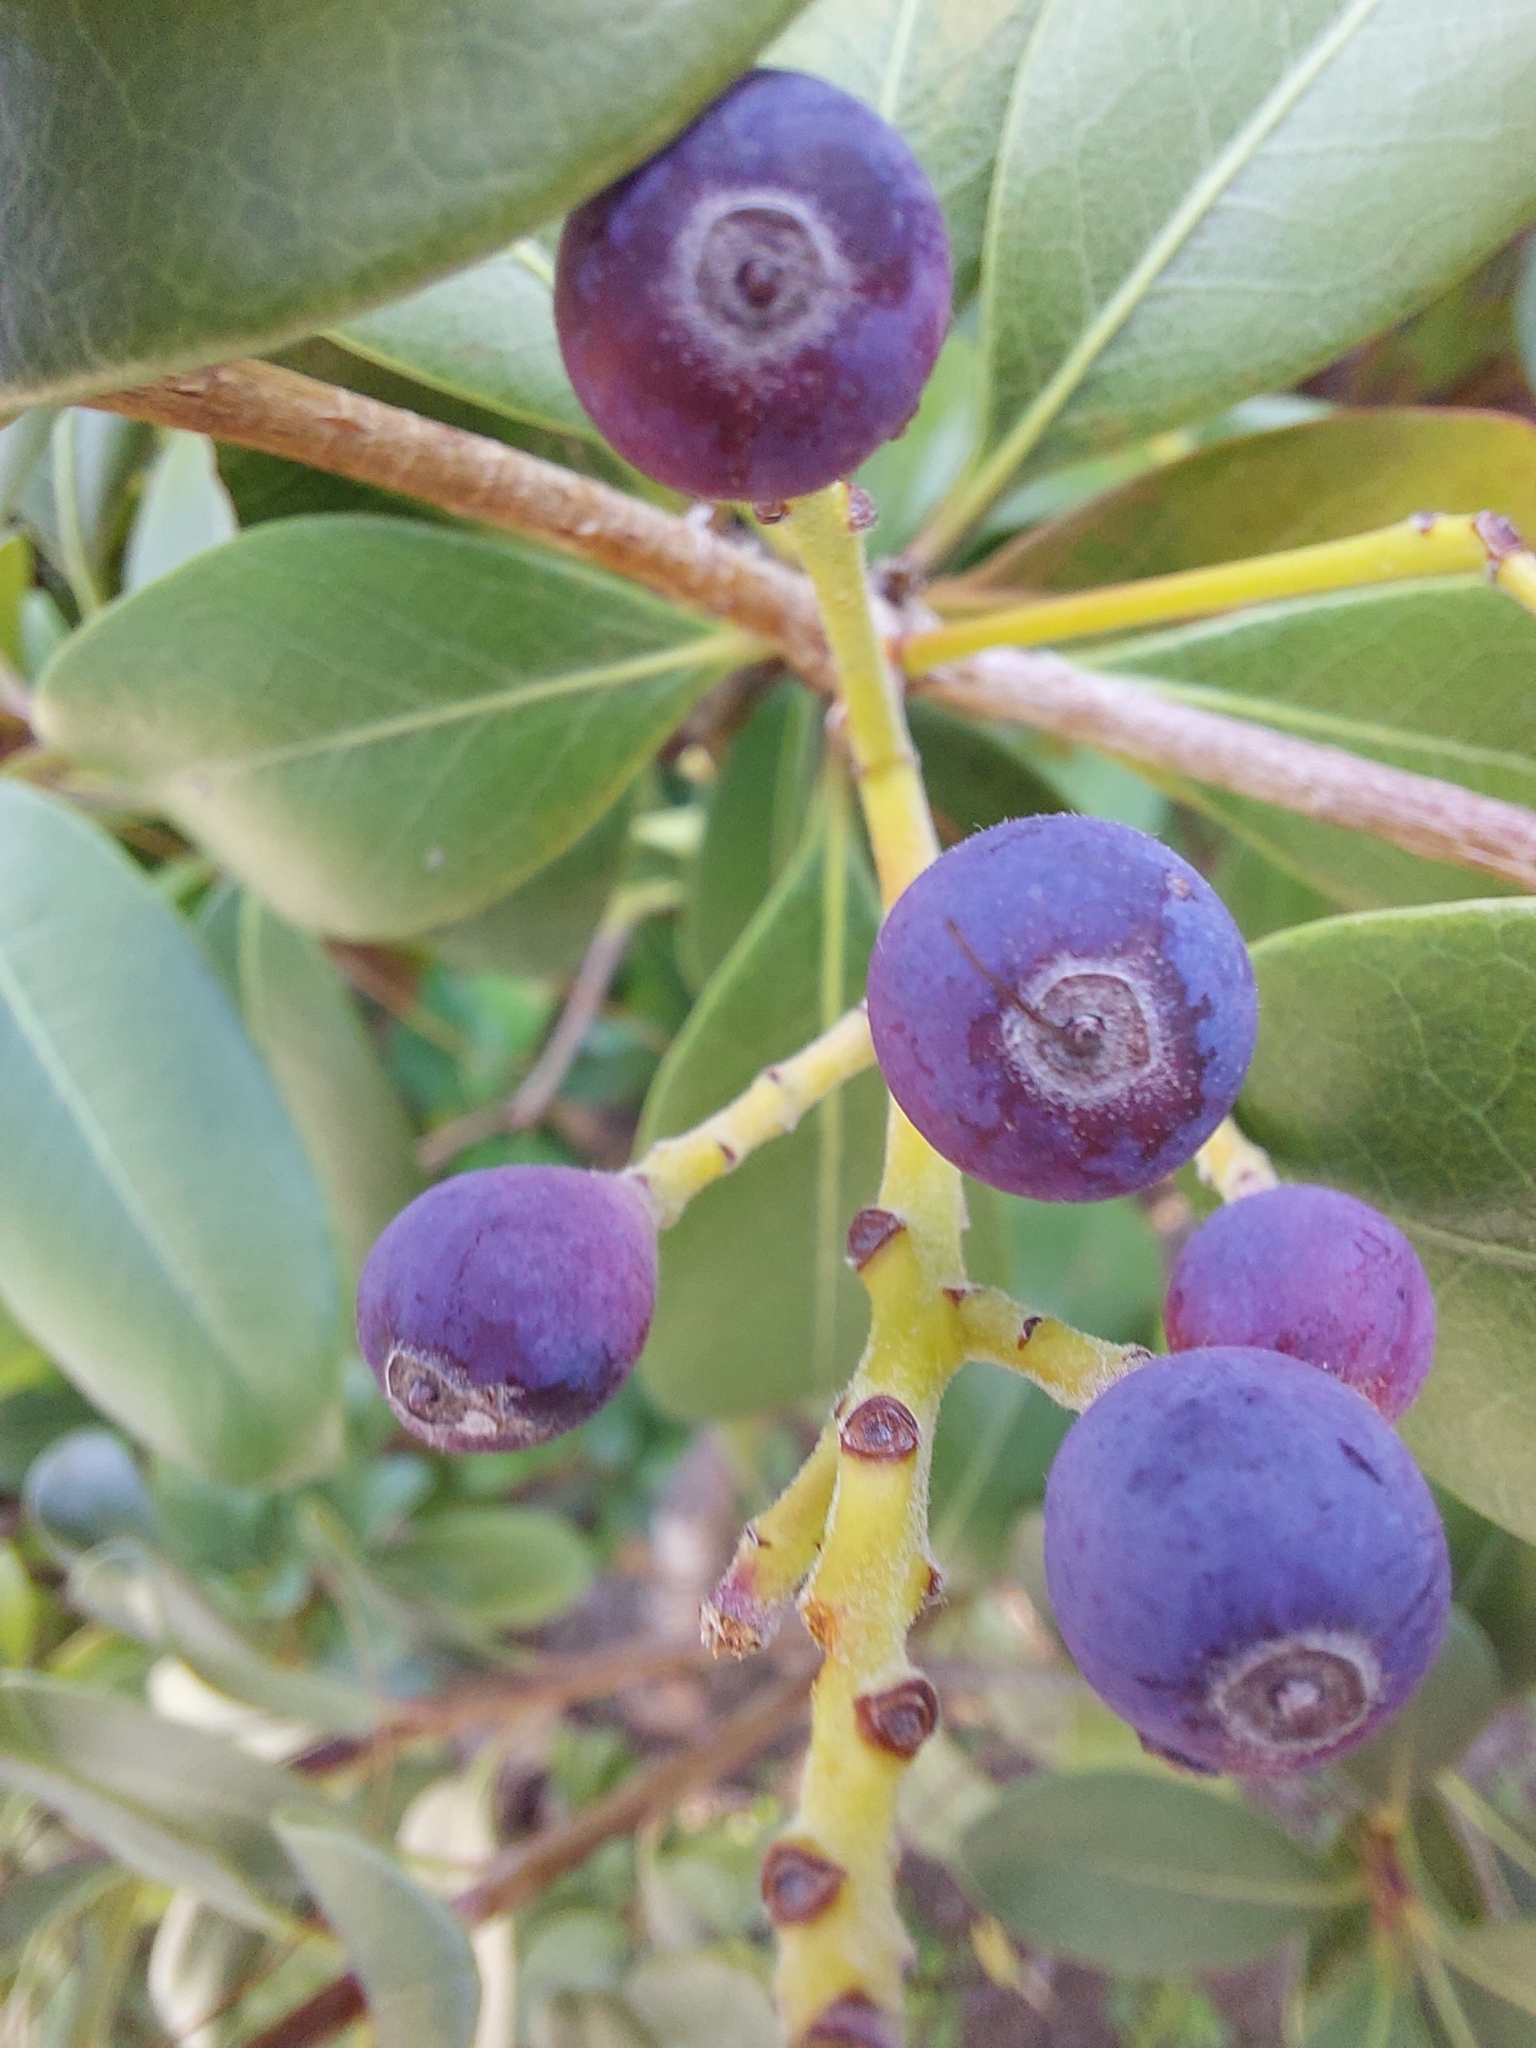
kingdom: Plantae
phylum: Tracheophyta
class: Magnoliopsida
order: Solanales
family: Solanaceae
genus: Solanum
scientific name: Solanum diphyllum
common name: Twoleaf nightshade
